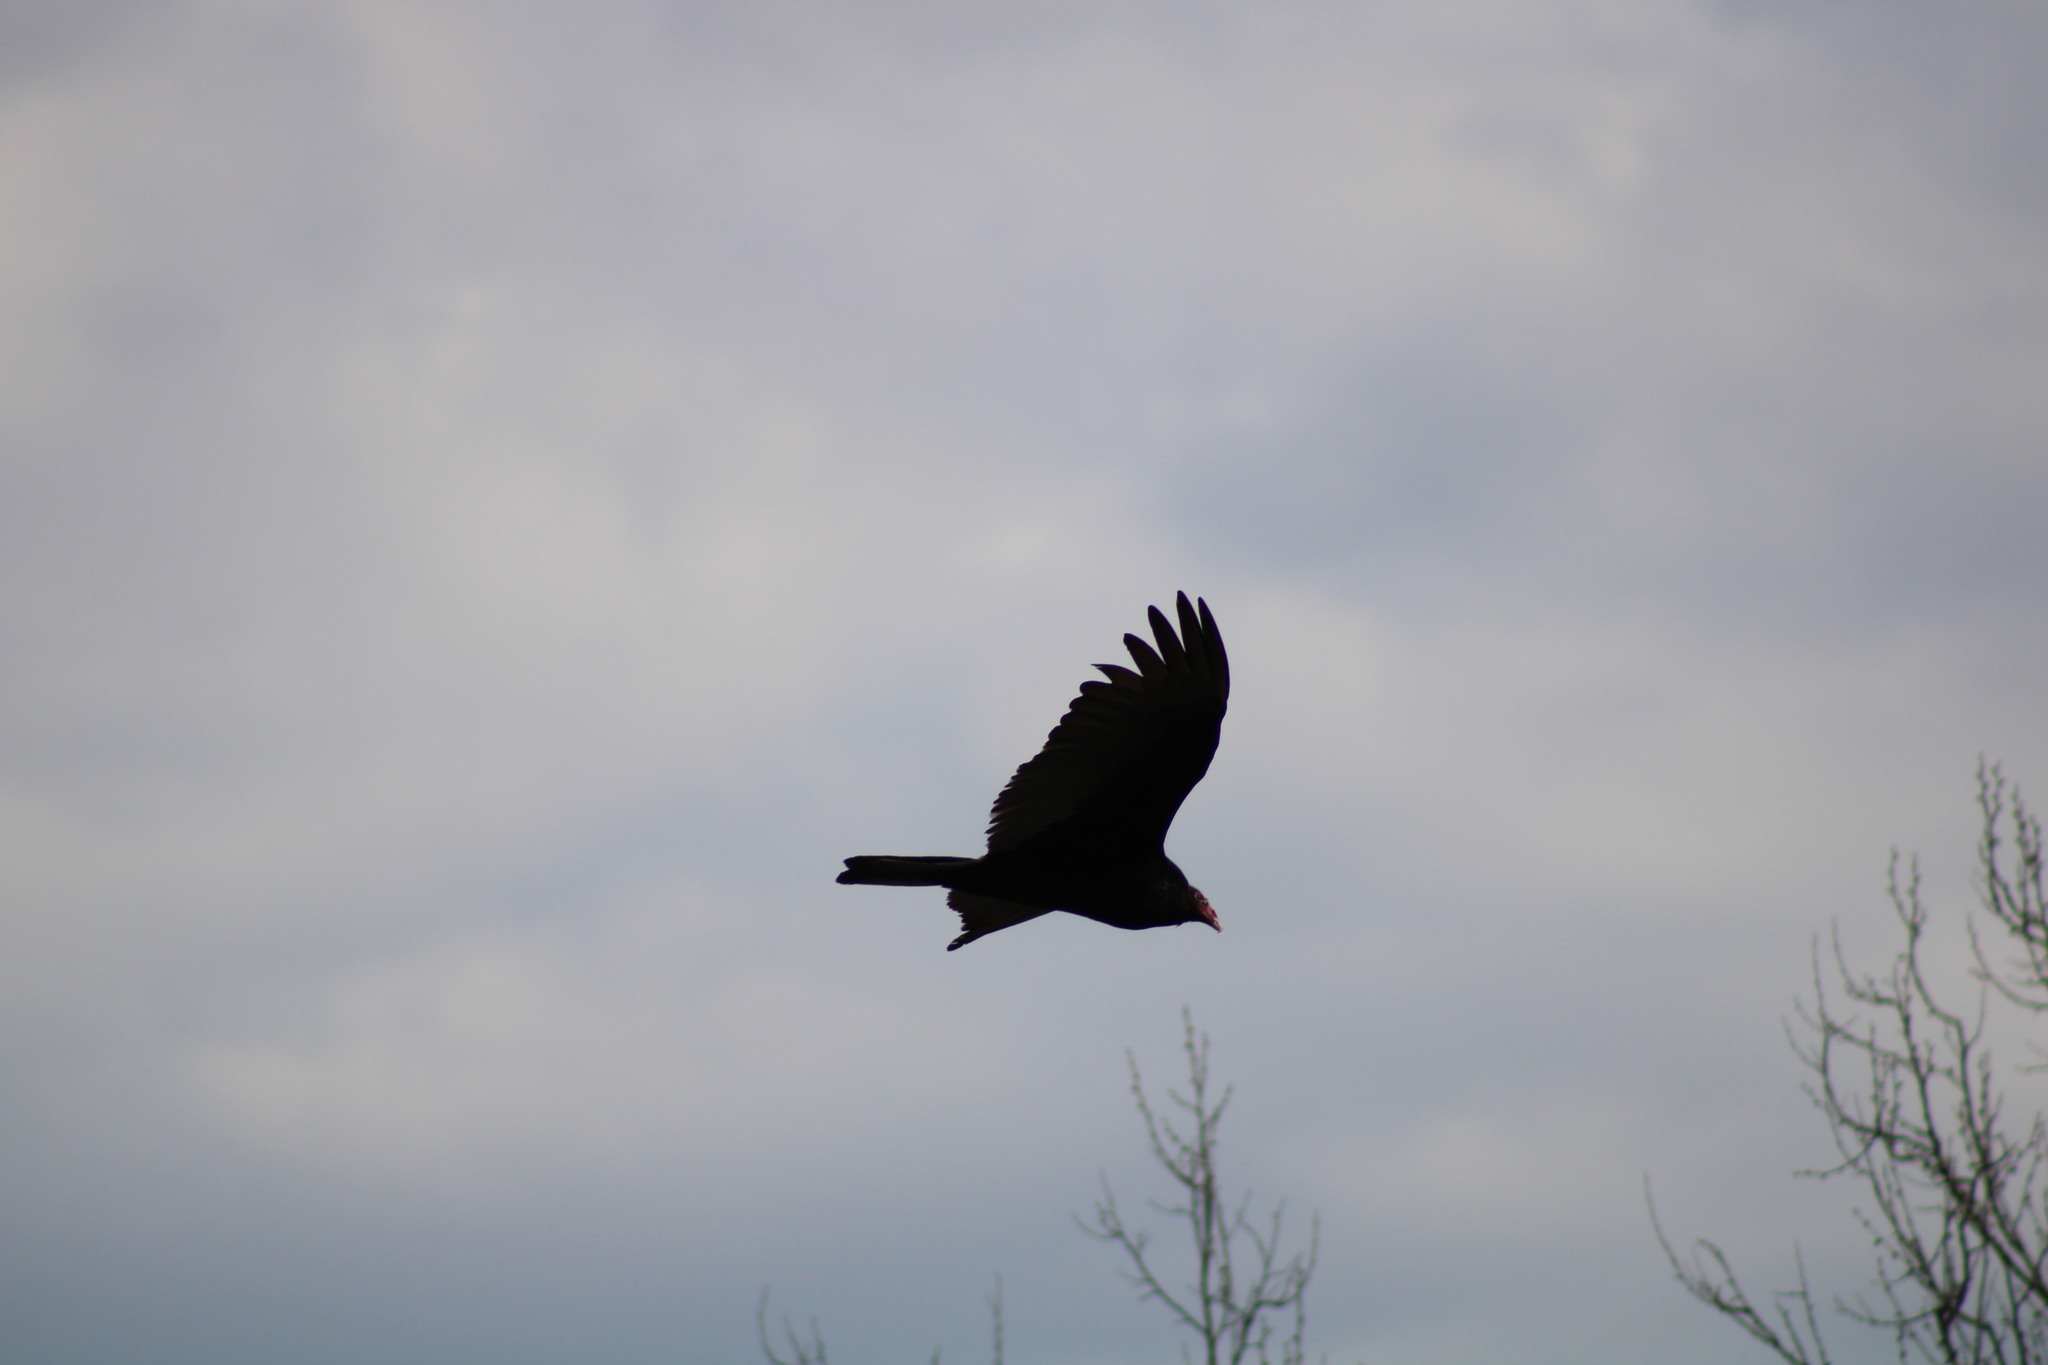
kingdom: Animalia
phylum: Chordata
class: Aves
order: Accipitriformes
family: Cathartidae
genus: Cathartes
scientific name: Cathartes aura
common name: Turkey vulture
